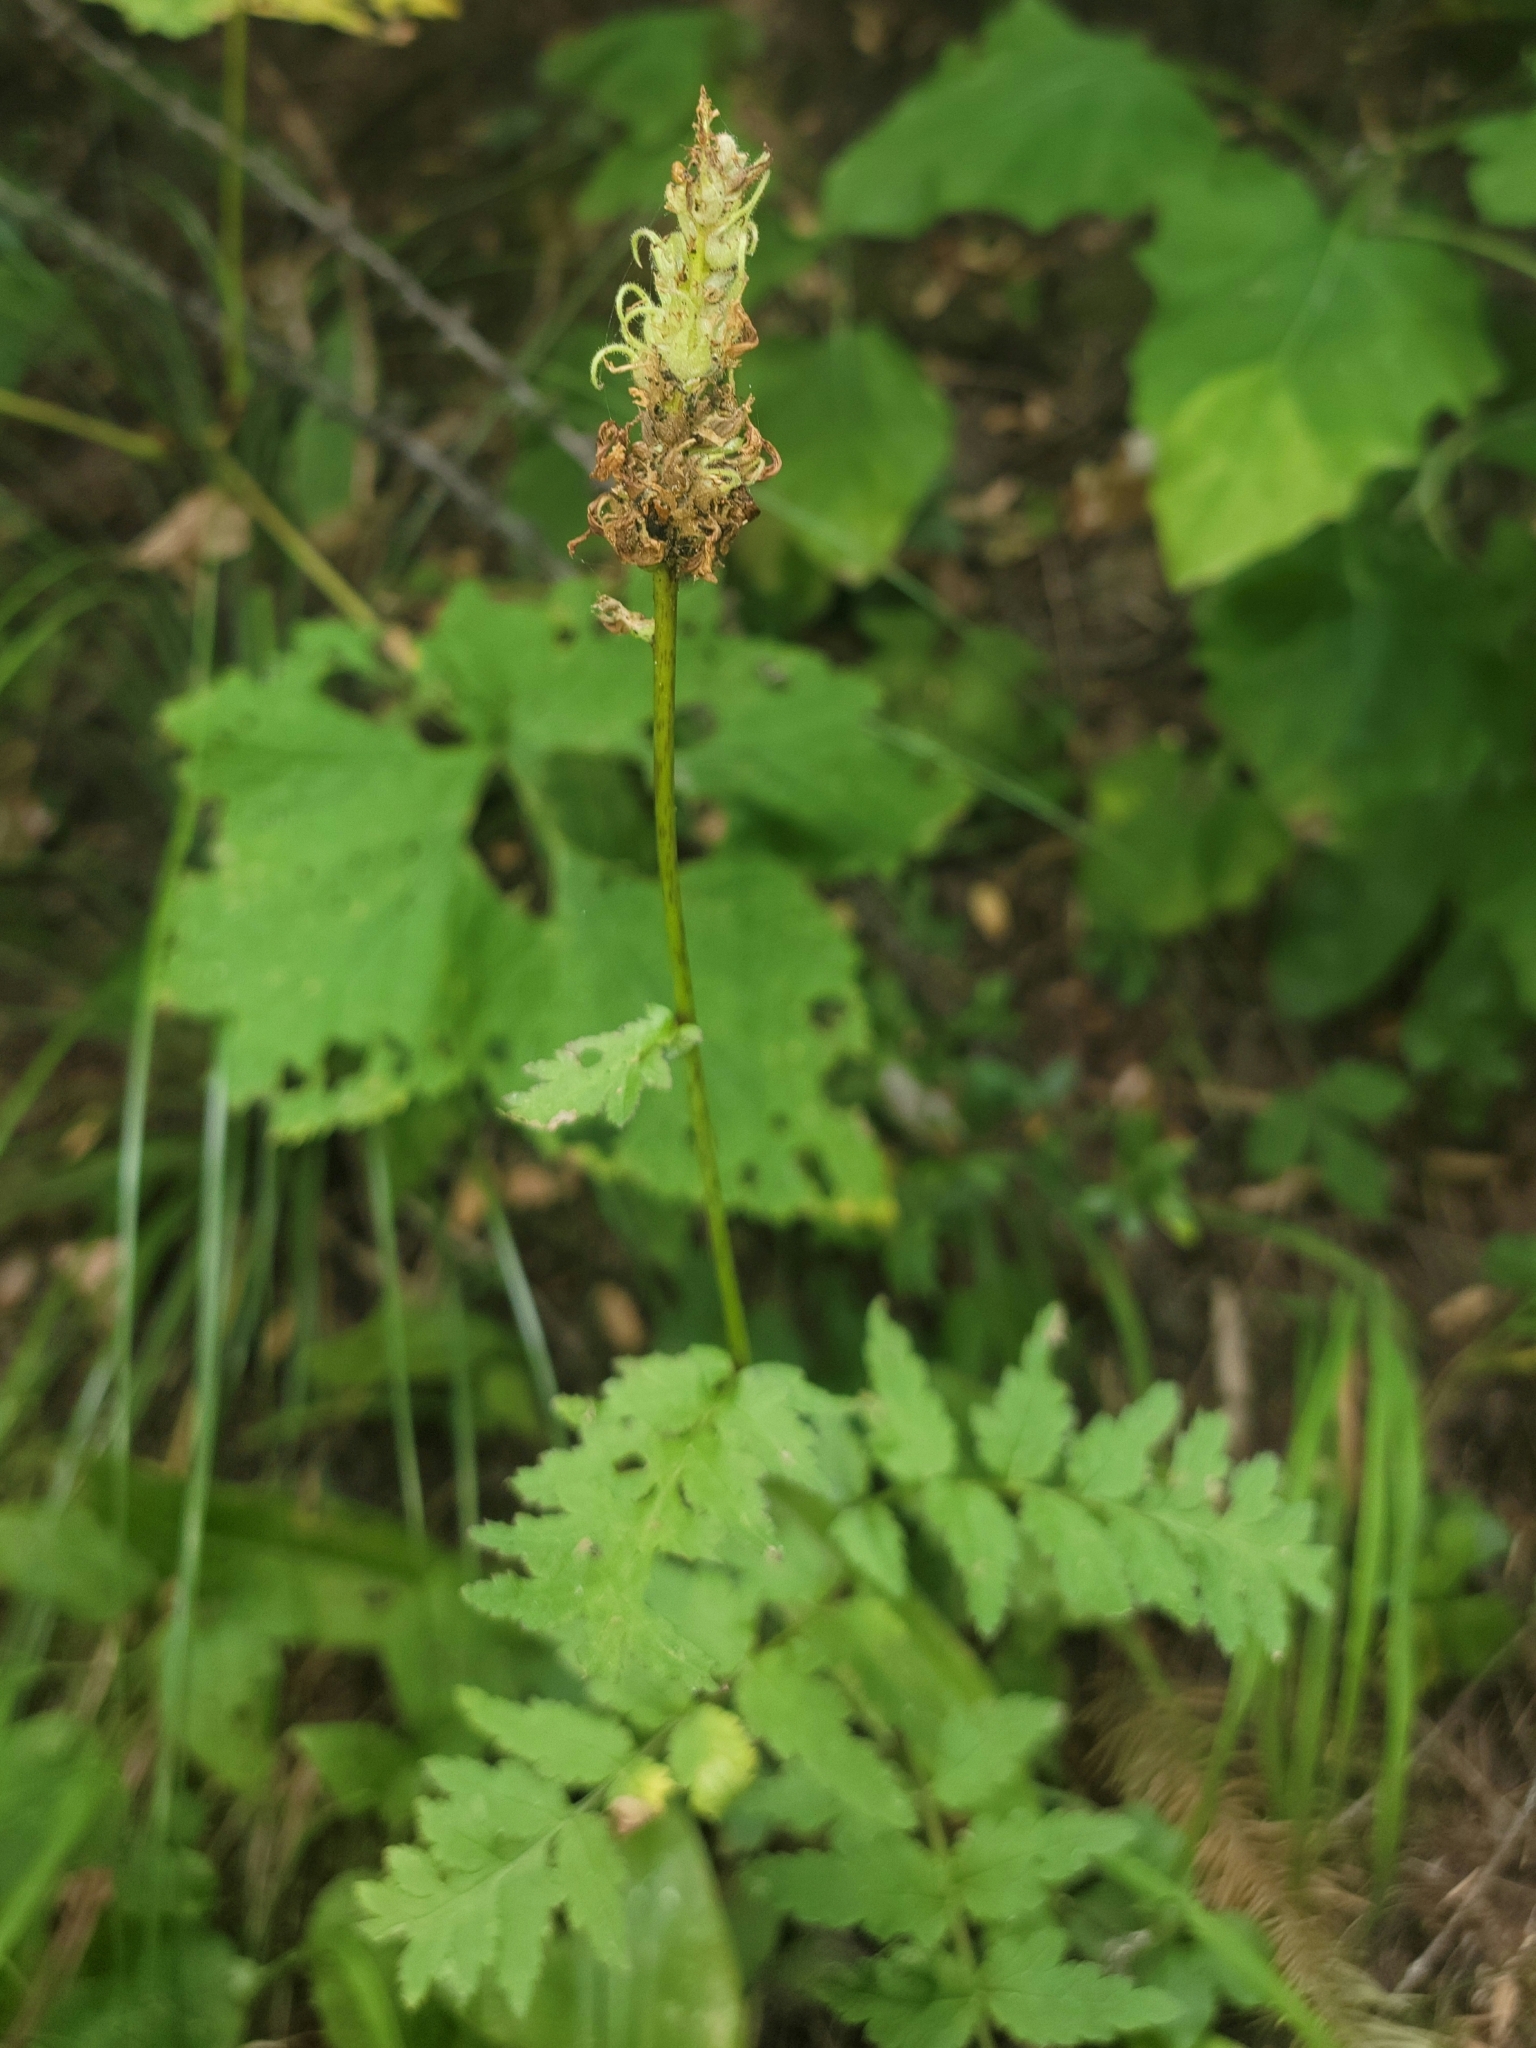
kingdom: Plantae
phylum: Tracheophyta
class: Magnoliopsida
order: Lamiales
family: Orobanchaceae
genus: Pedicularis
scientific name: Pedicularis bracteosa
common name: Bracted lousewort
